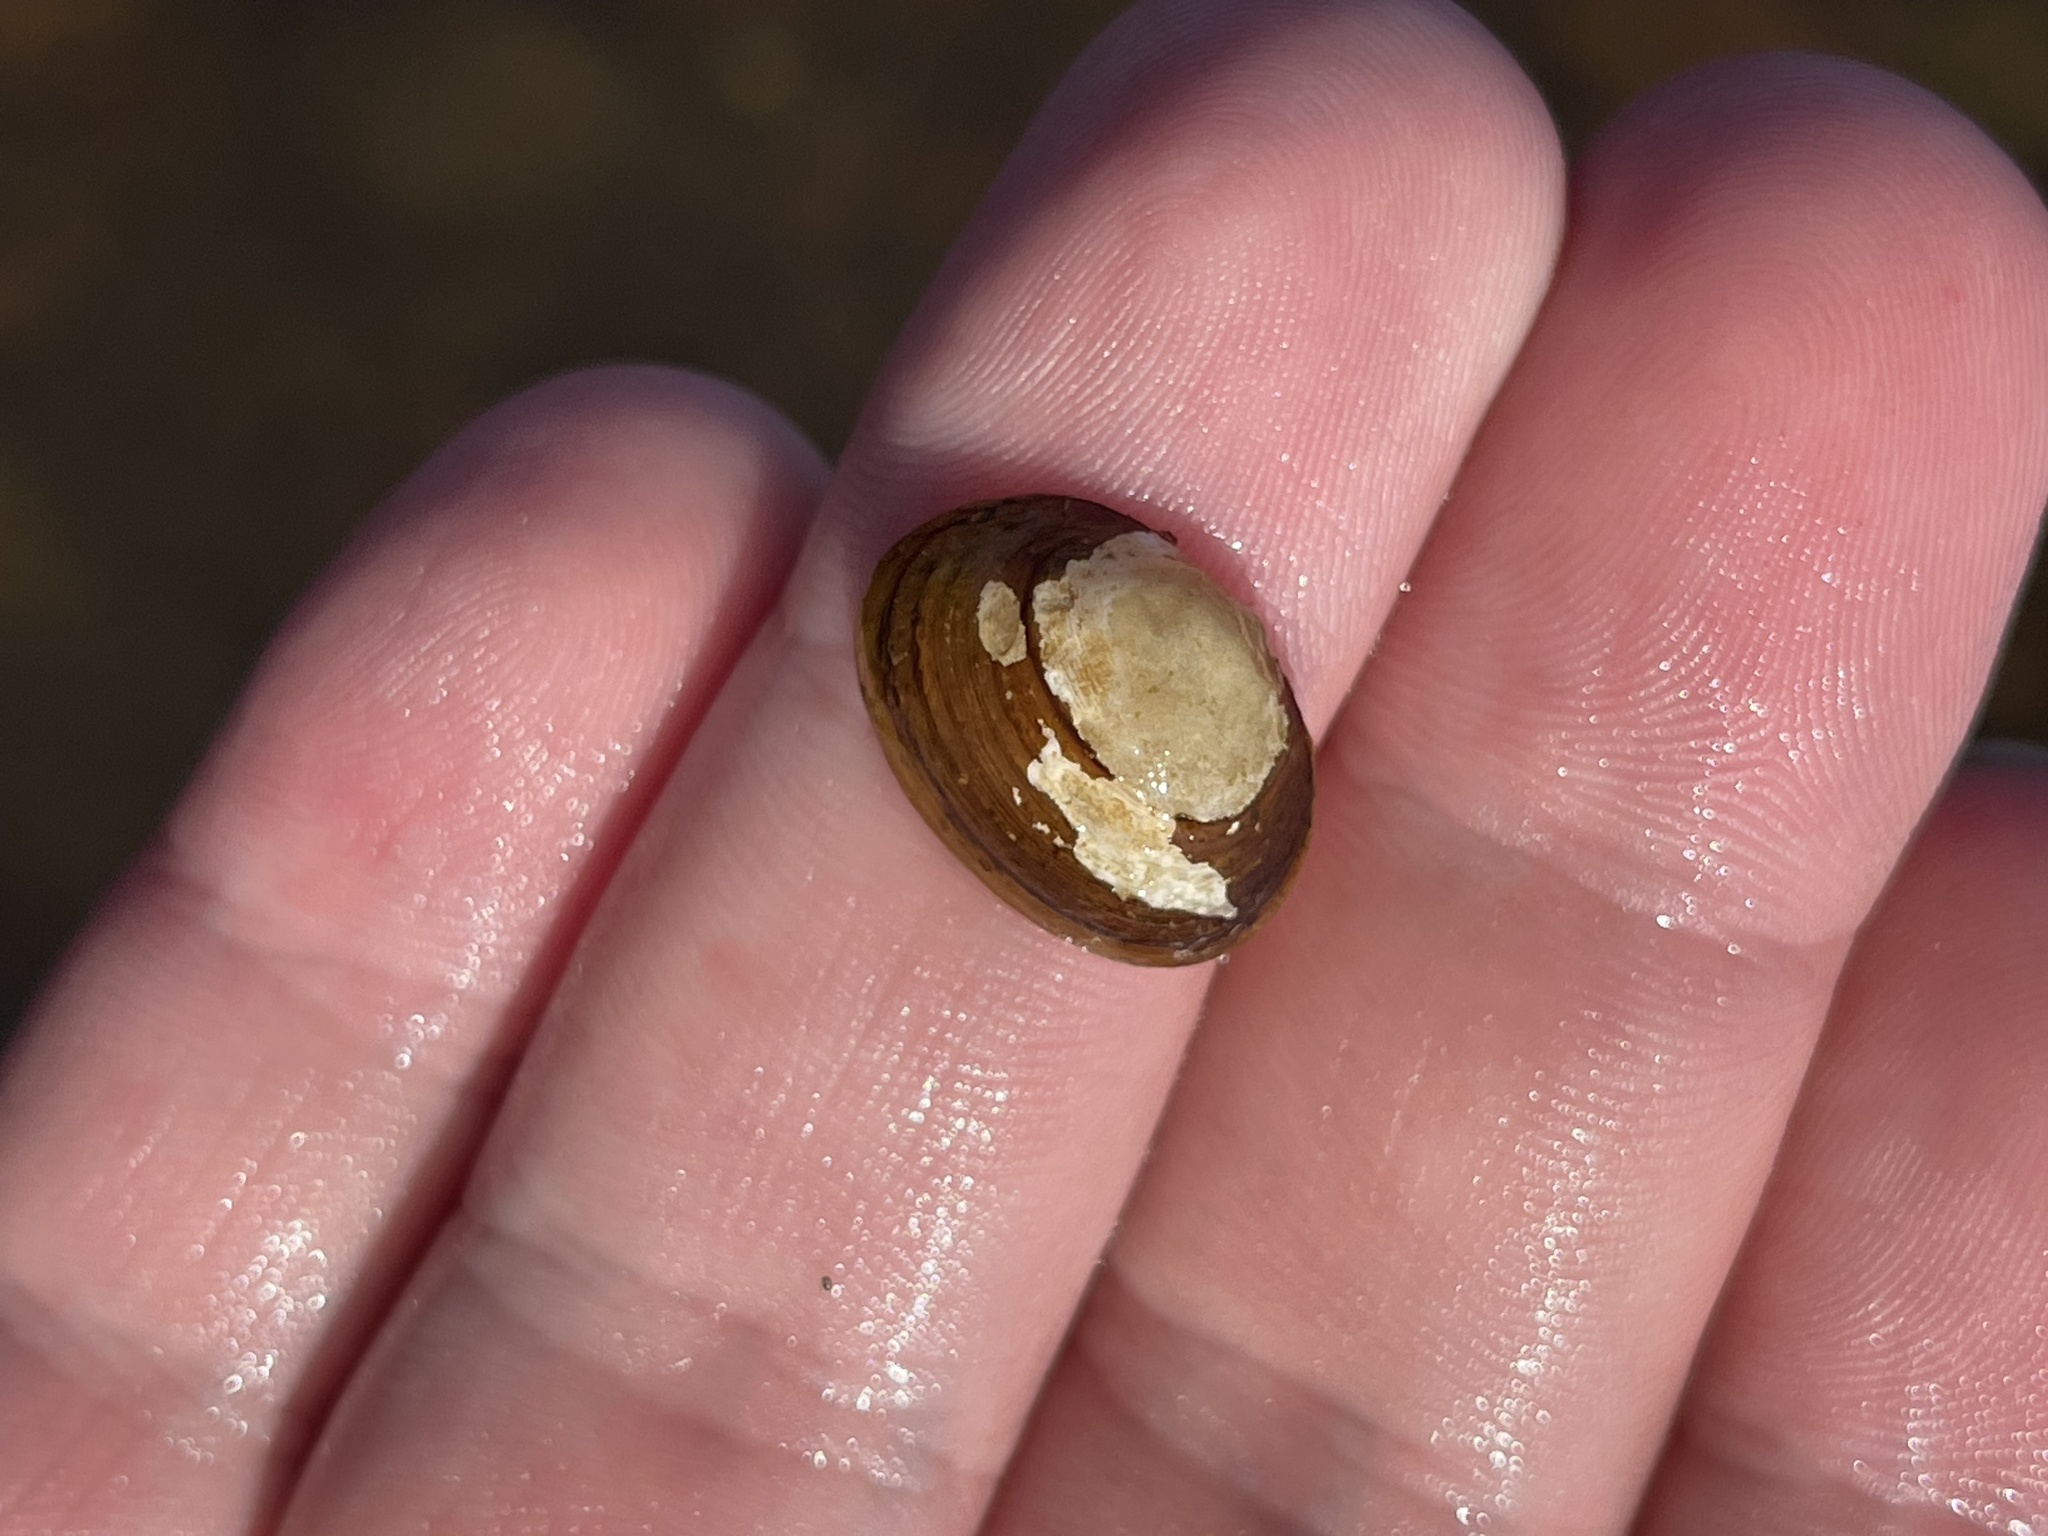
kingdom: Animalia
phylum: Mollusca
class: Bivalvia
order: Sphaeriida
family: Sphaeriidae
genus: Sphaerium
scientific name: Sphaerium simile
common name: Grooved fingernailclam
